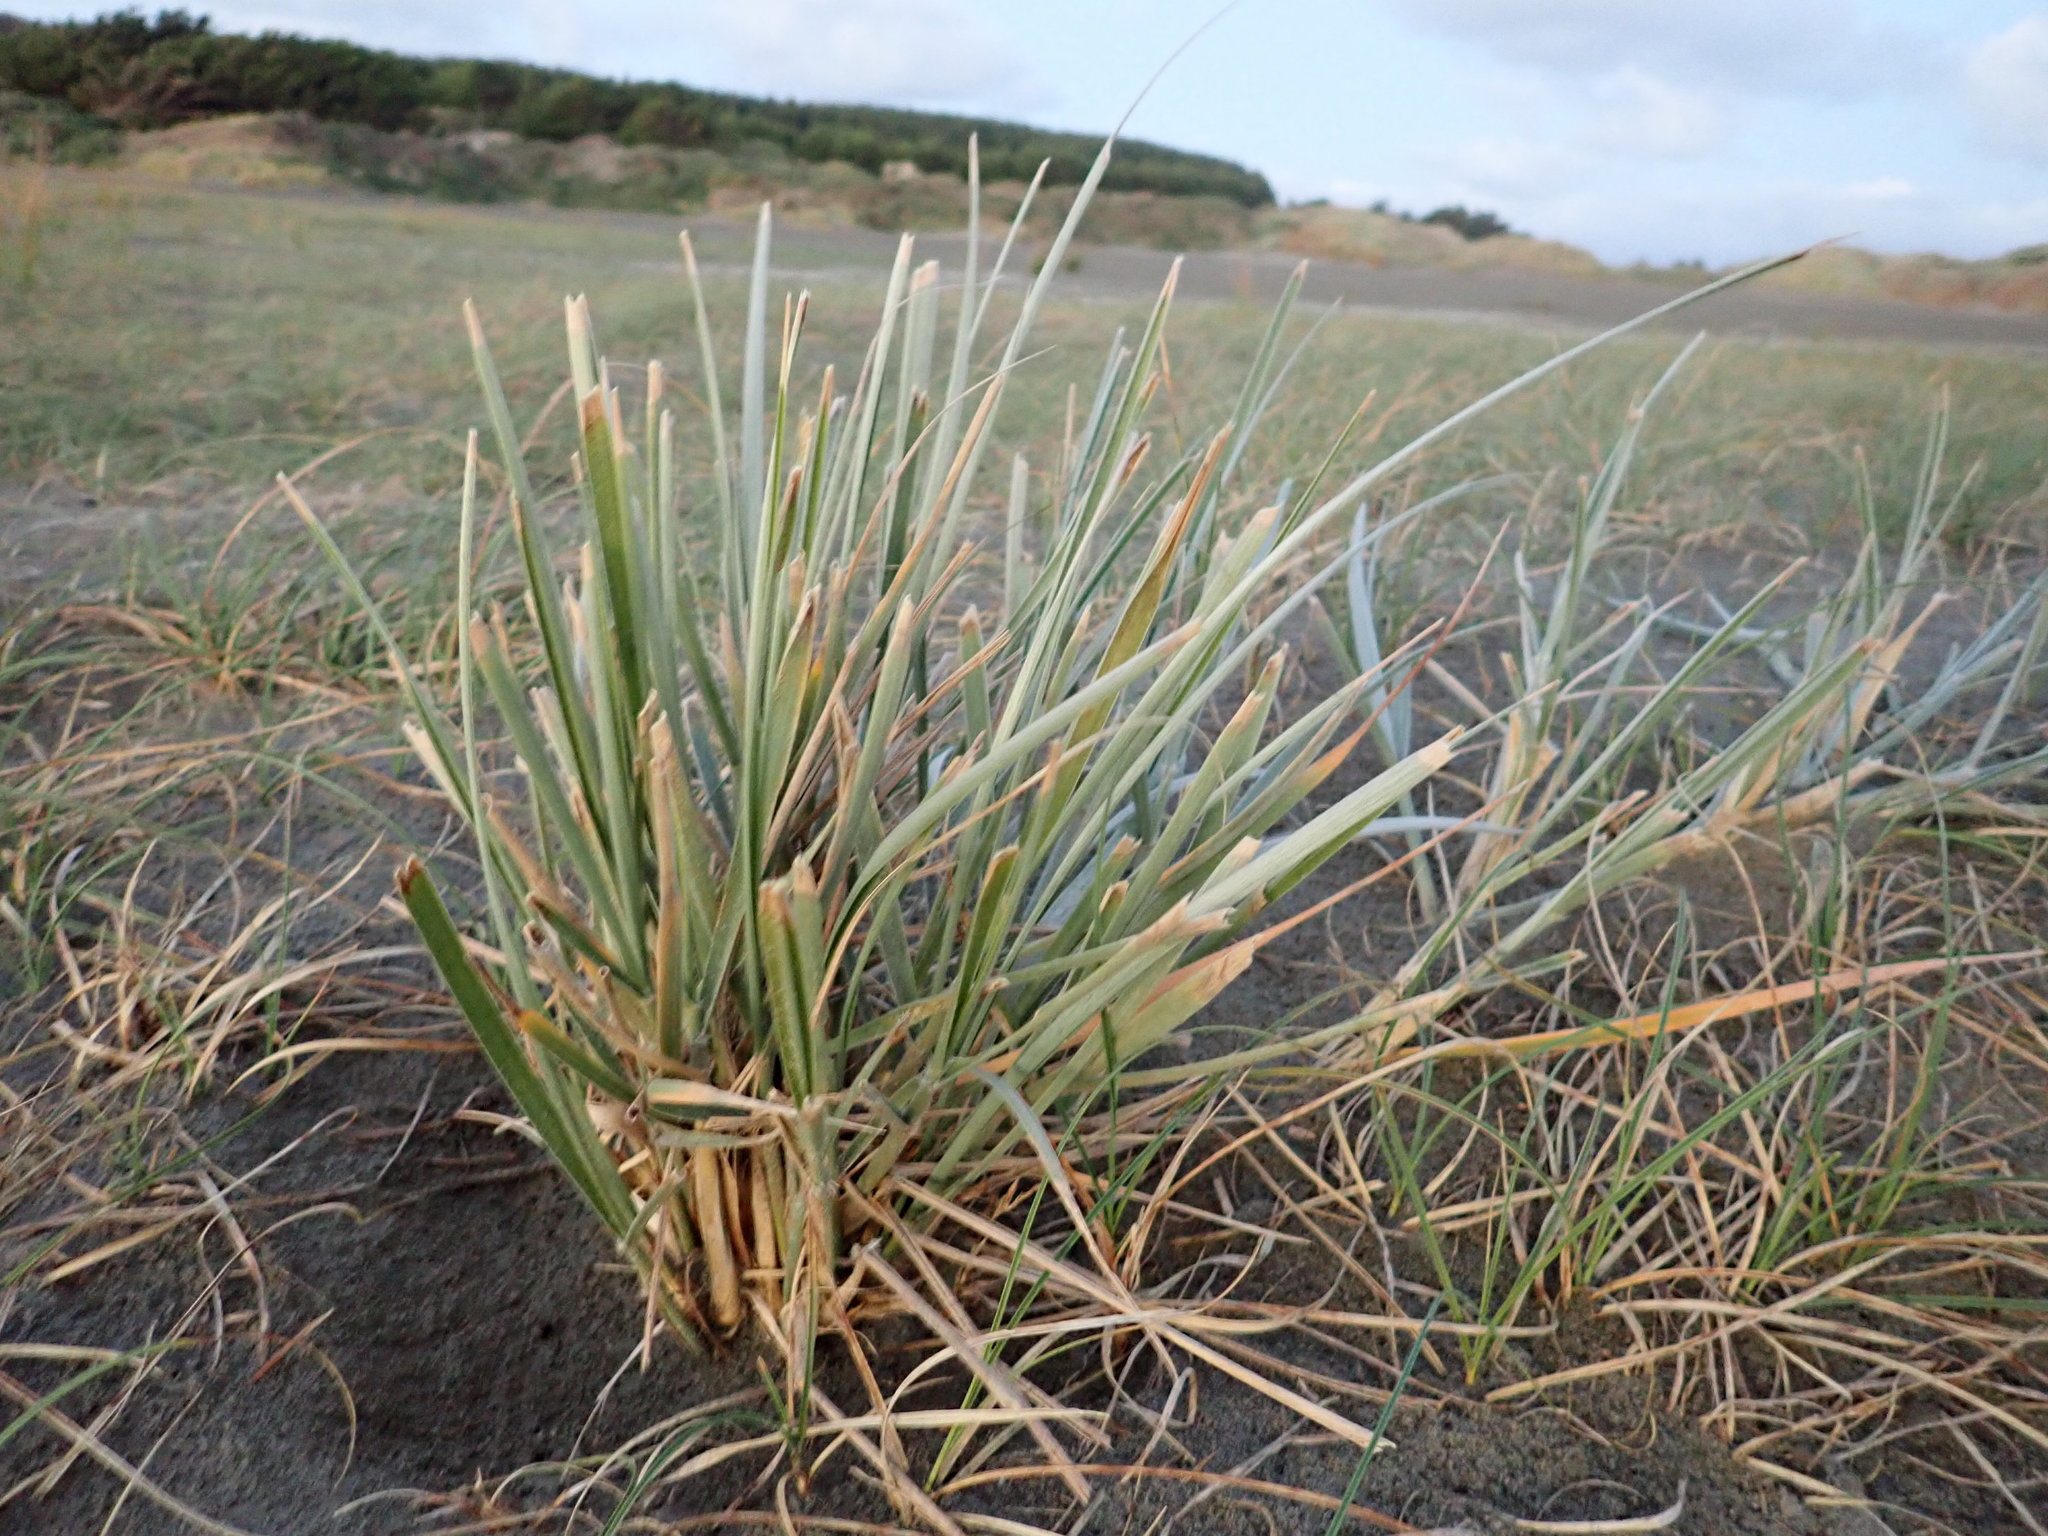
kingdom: Plantae
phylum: Tracheophyta
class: Liliopsida
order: Poales
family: Poaceae
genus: Spinifex
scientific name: Spinifex sericeus
